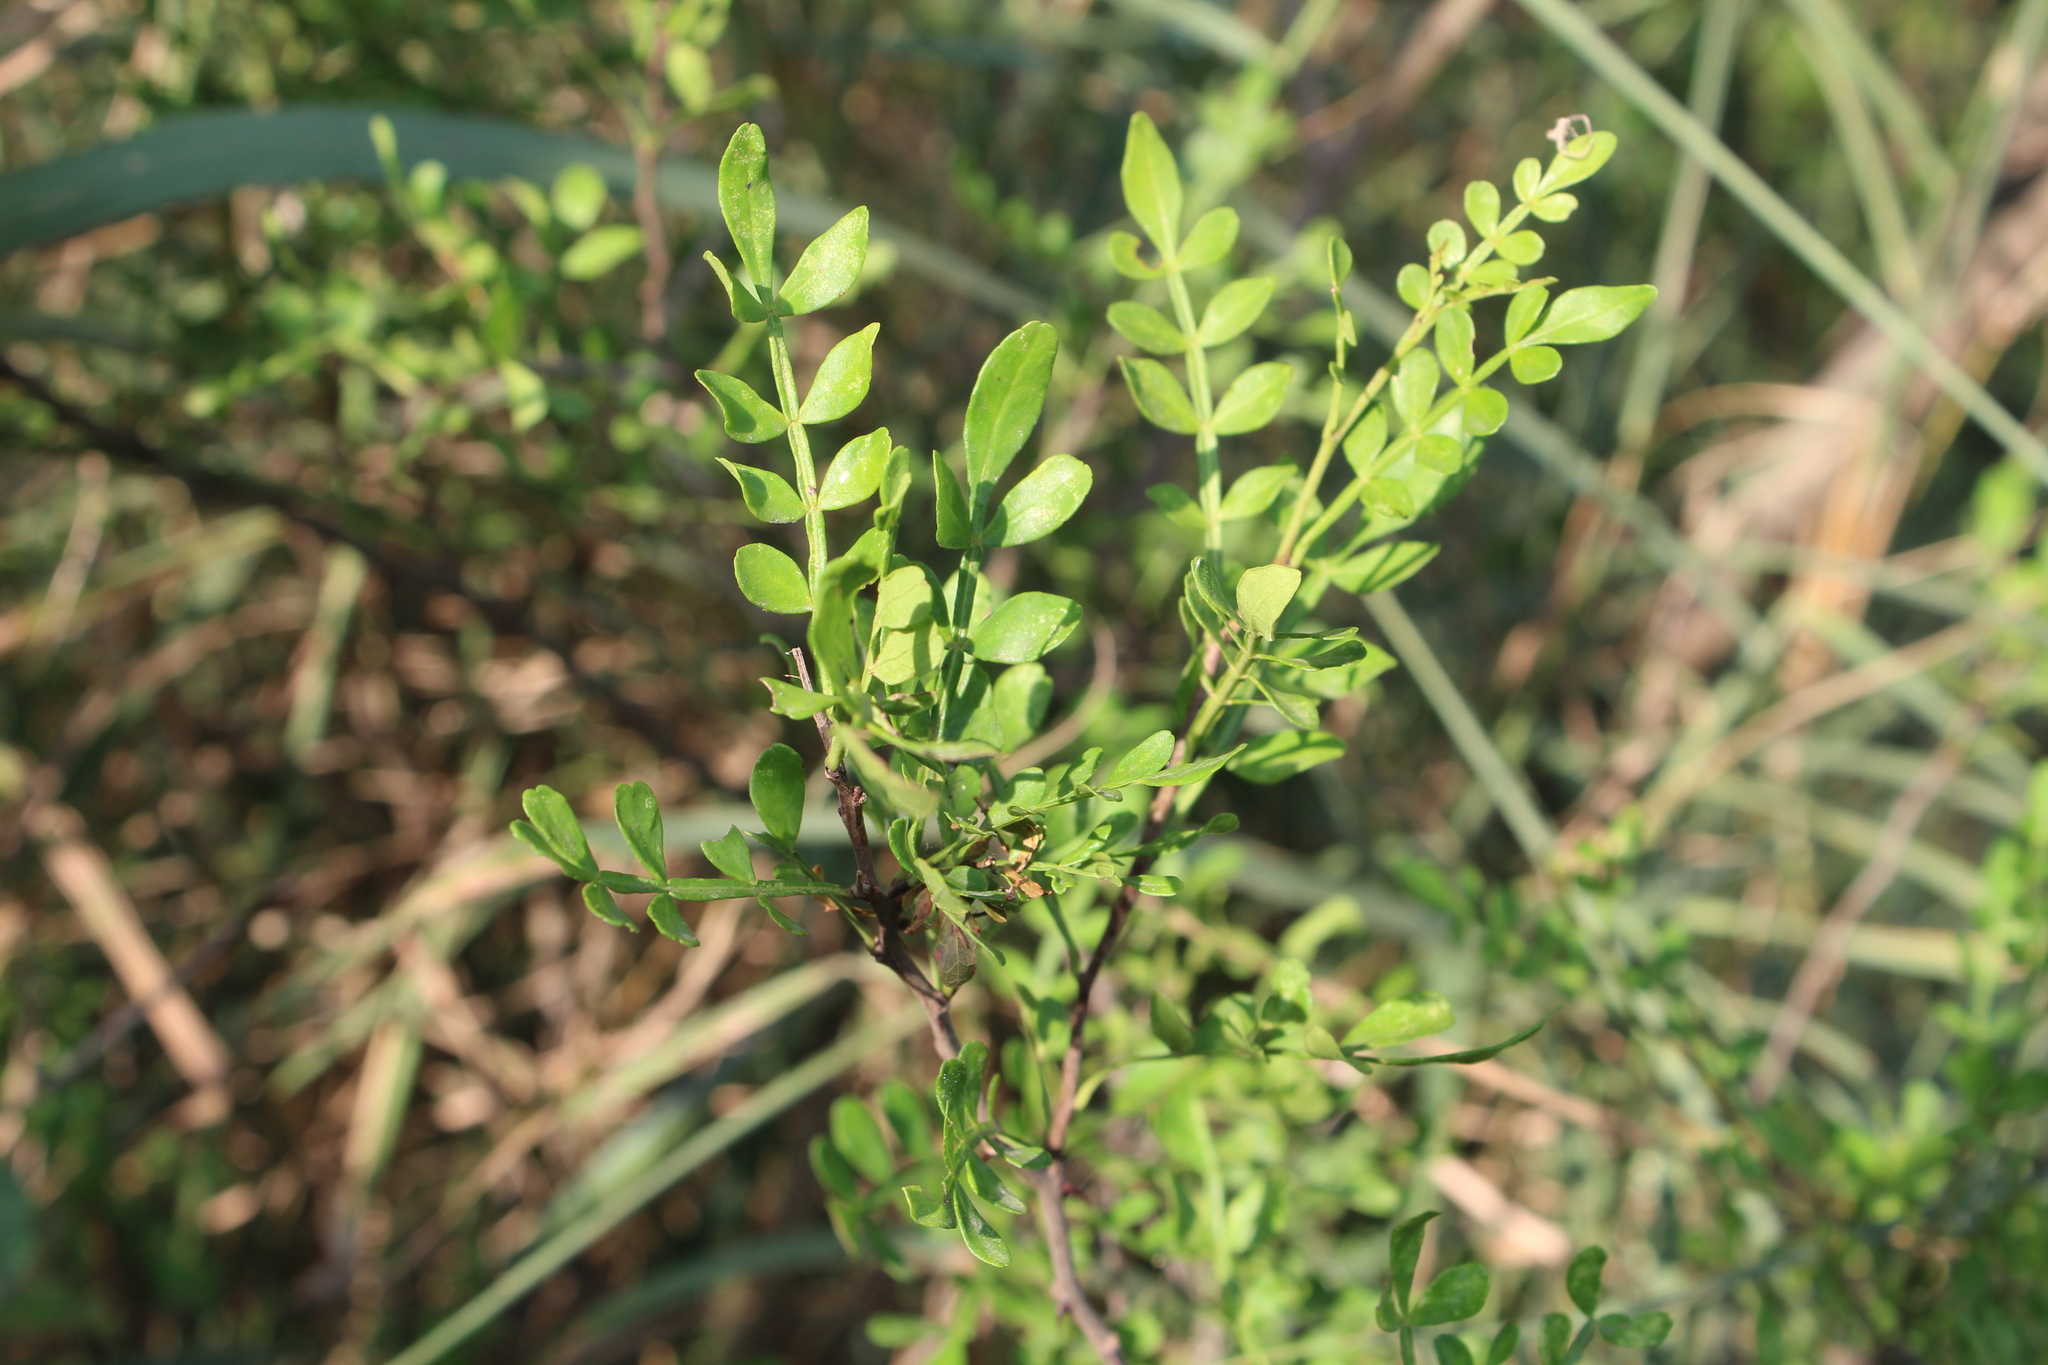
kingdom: Plantae
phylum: Tracheophyta
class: Magnoliopsida
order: Sapindales
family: Rutaceae
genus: Zanthoxylum
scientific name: Zanthoxylum fagara
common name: Lime prickly-ash
